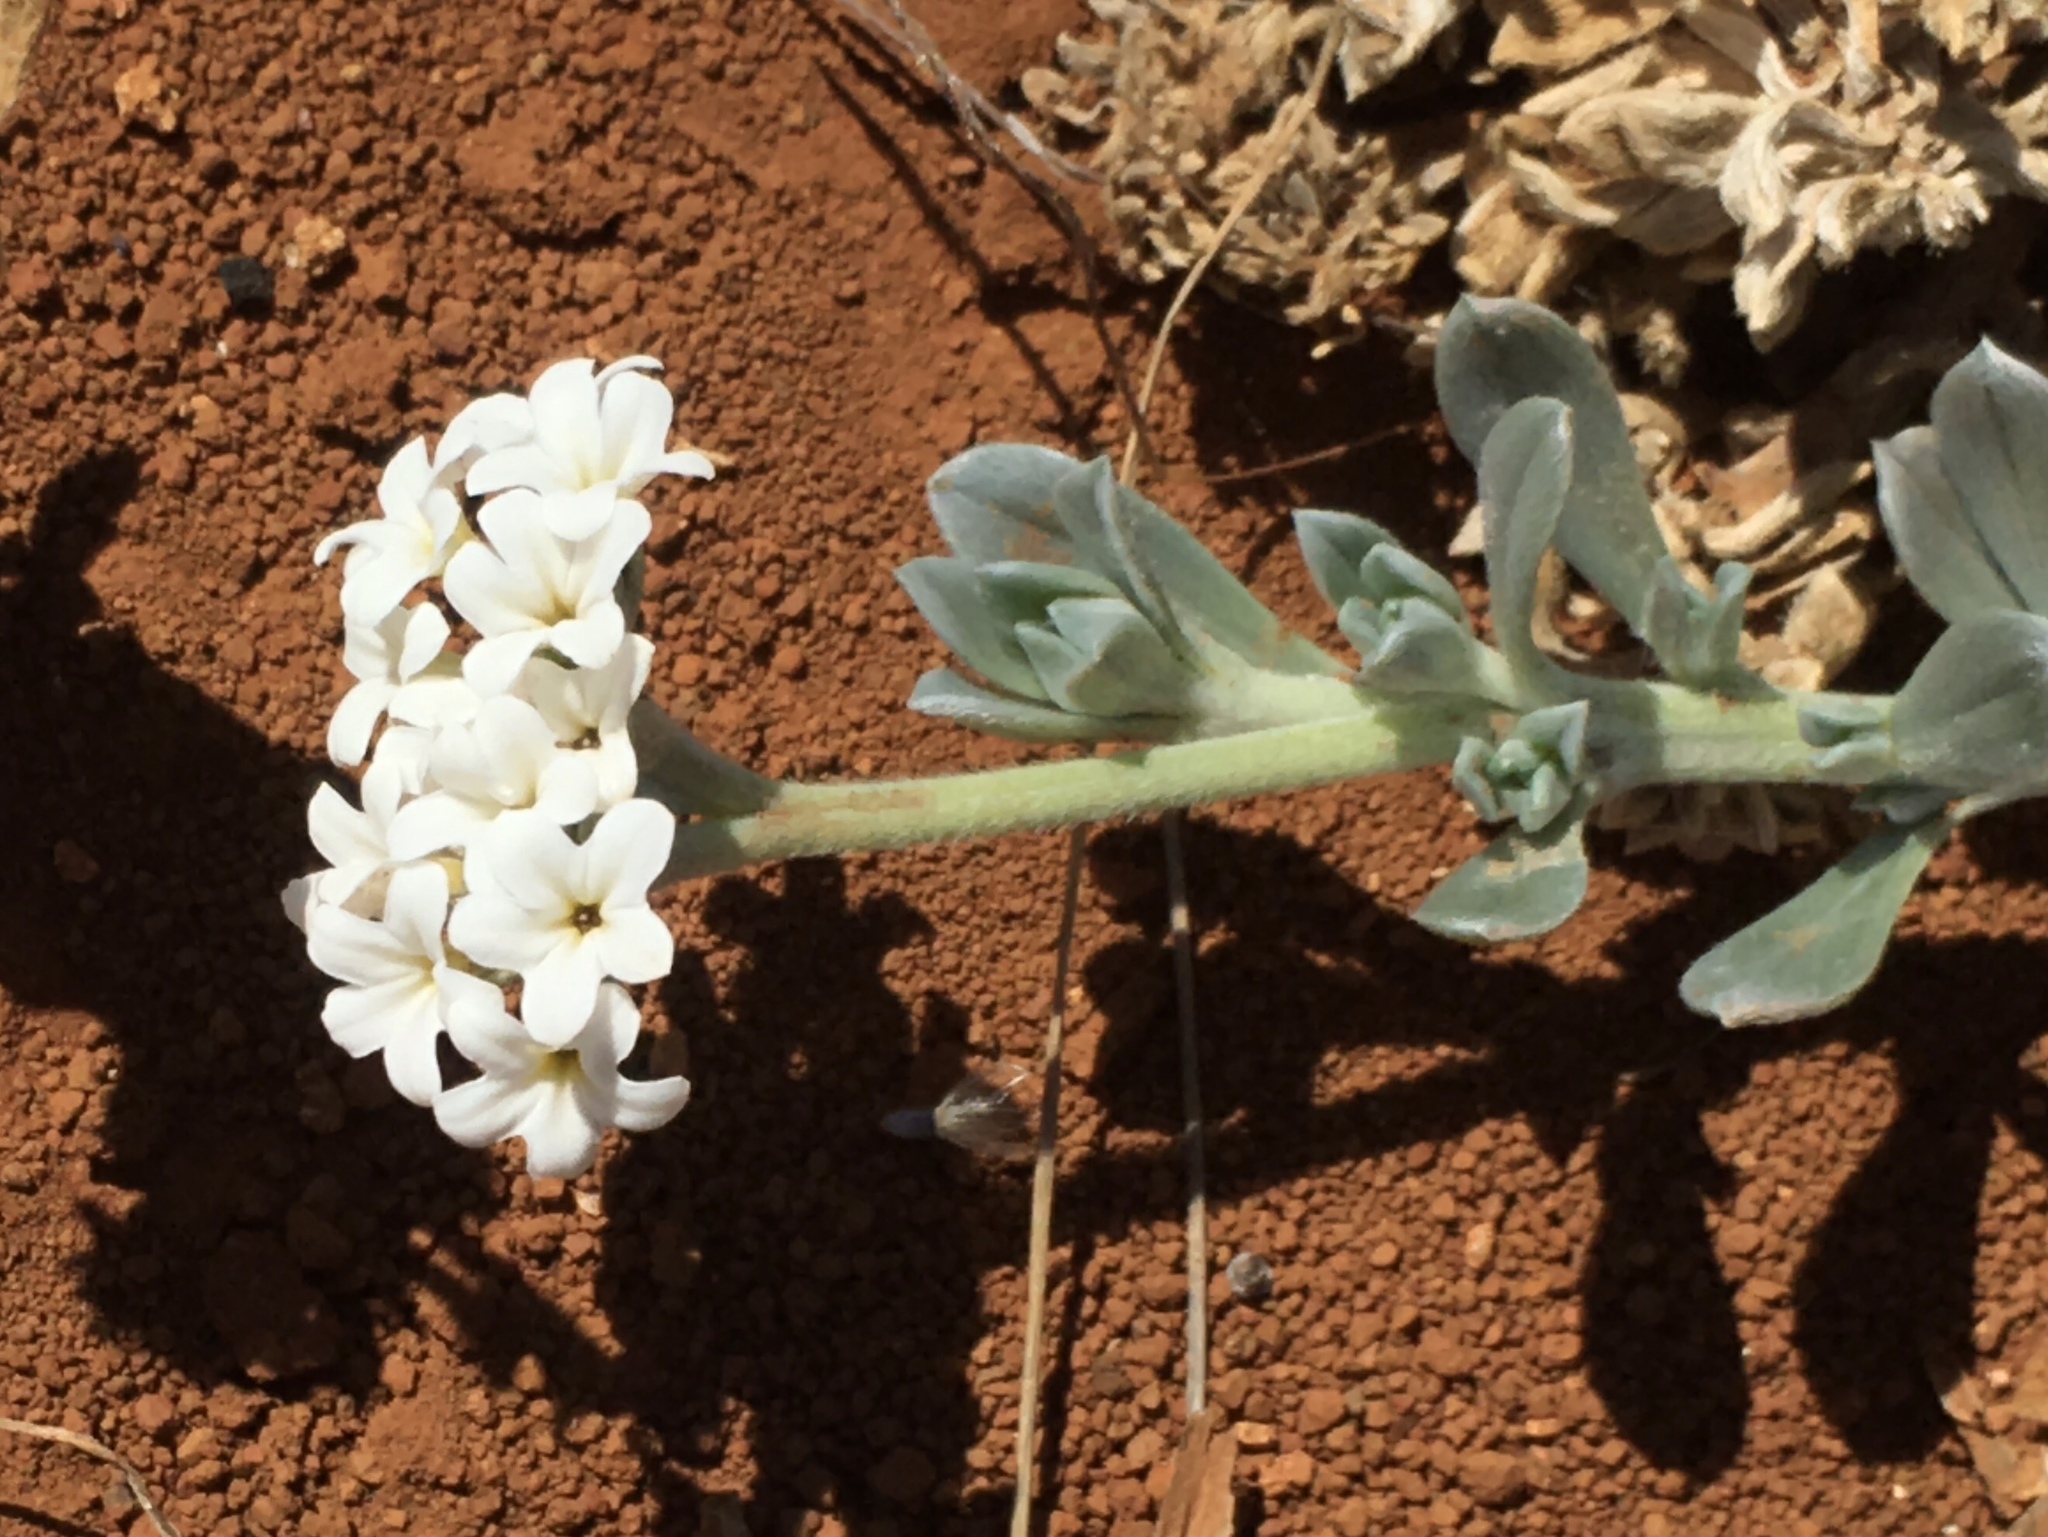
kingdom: Plantae
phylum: Tracheophyta
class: Magnoliopsida
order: Boraginales
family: Heliotropiaceae
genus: Heliotropium
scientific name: Heliotropium anomalum
